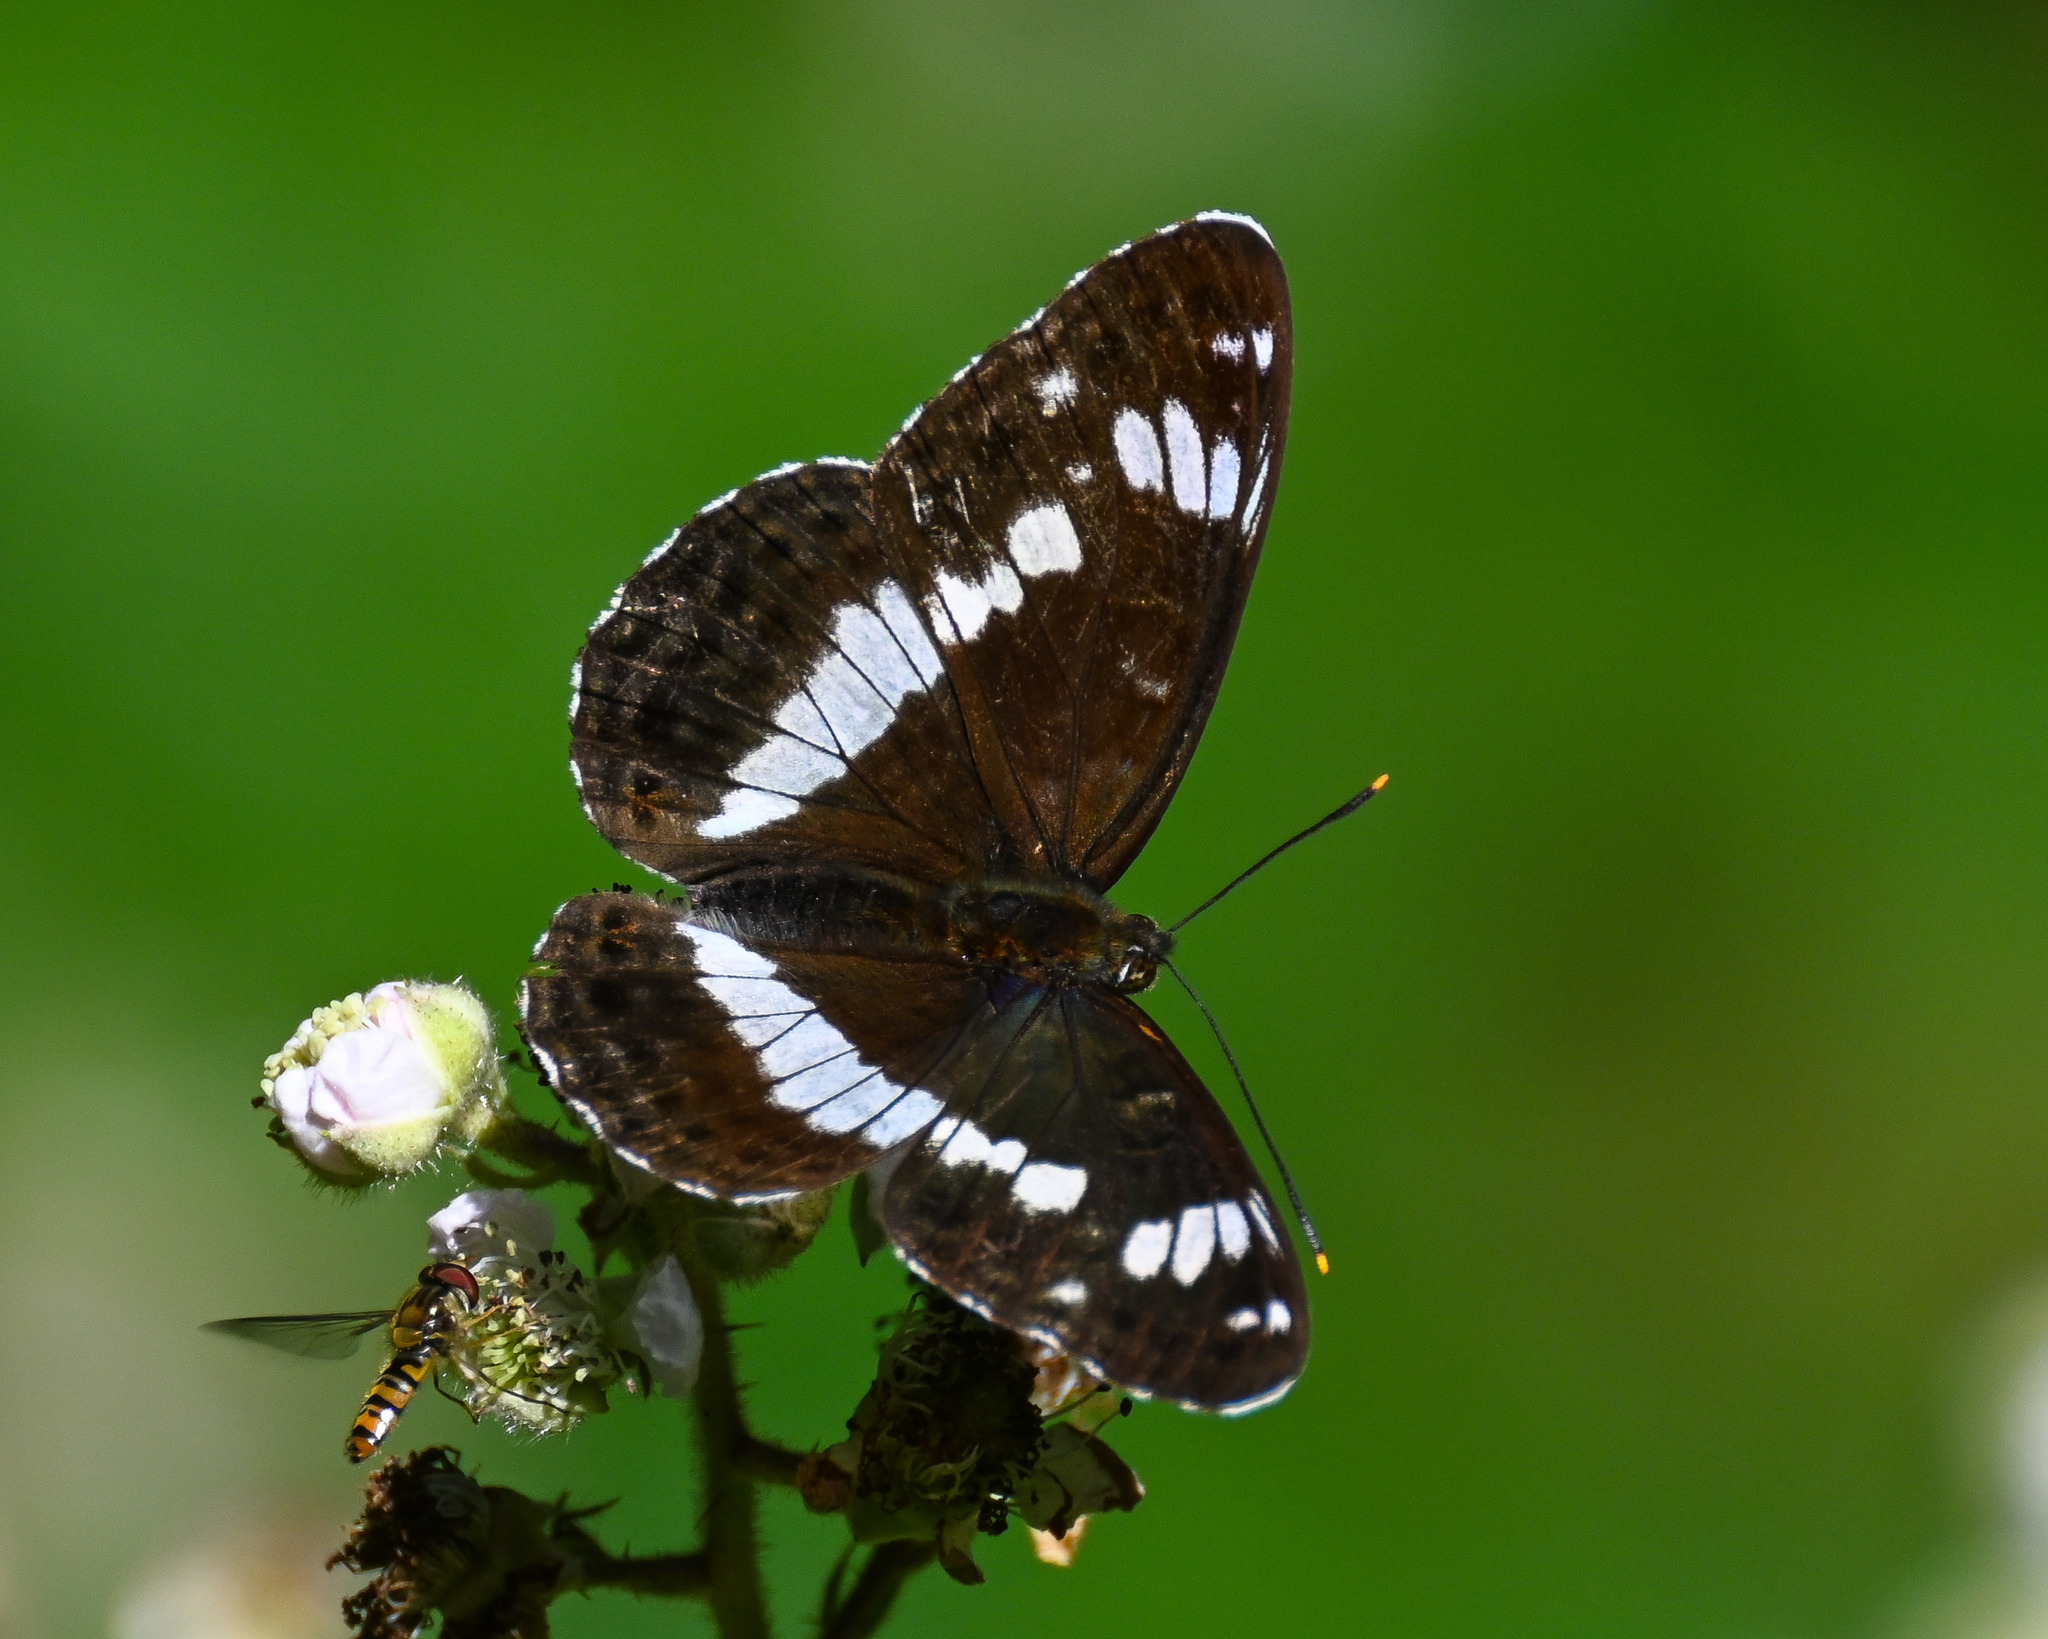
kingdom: Animalia
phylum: Arthropoda
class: Insecta
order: Lepidoptera
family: Nymphalidae
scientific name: Nymphalidae
